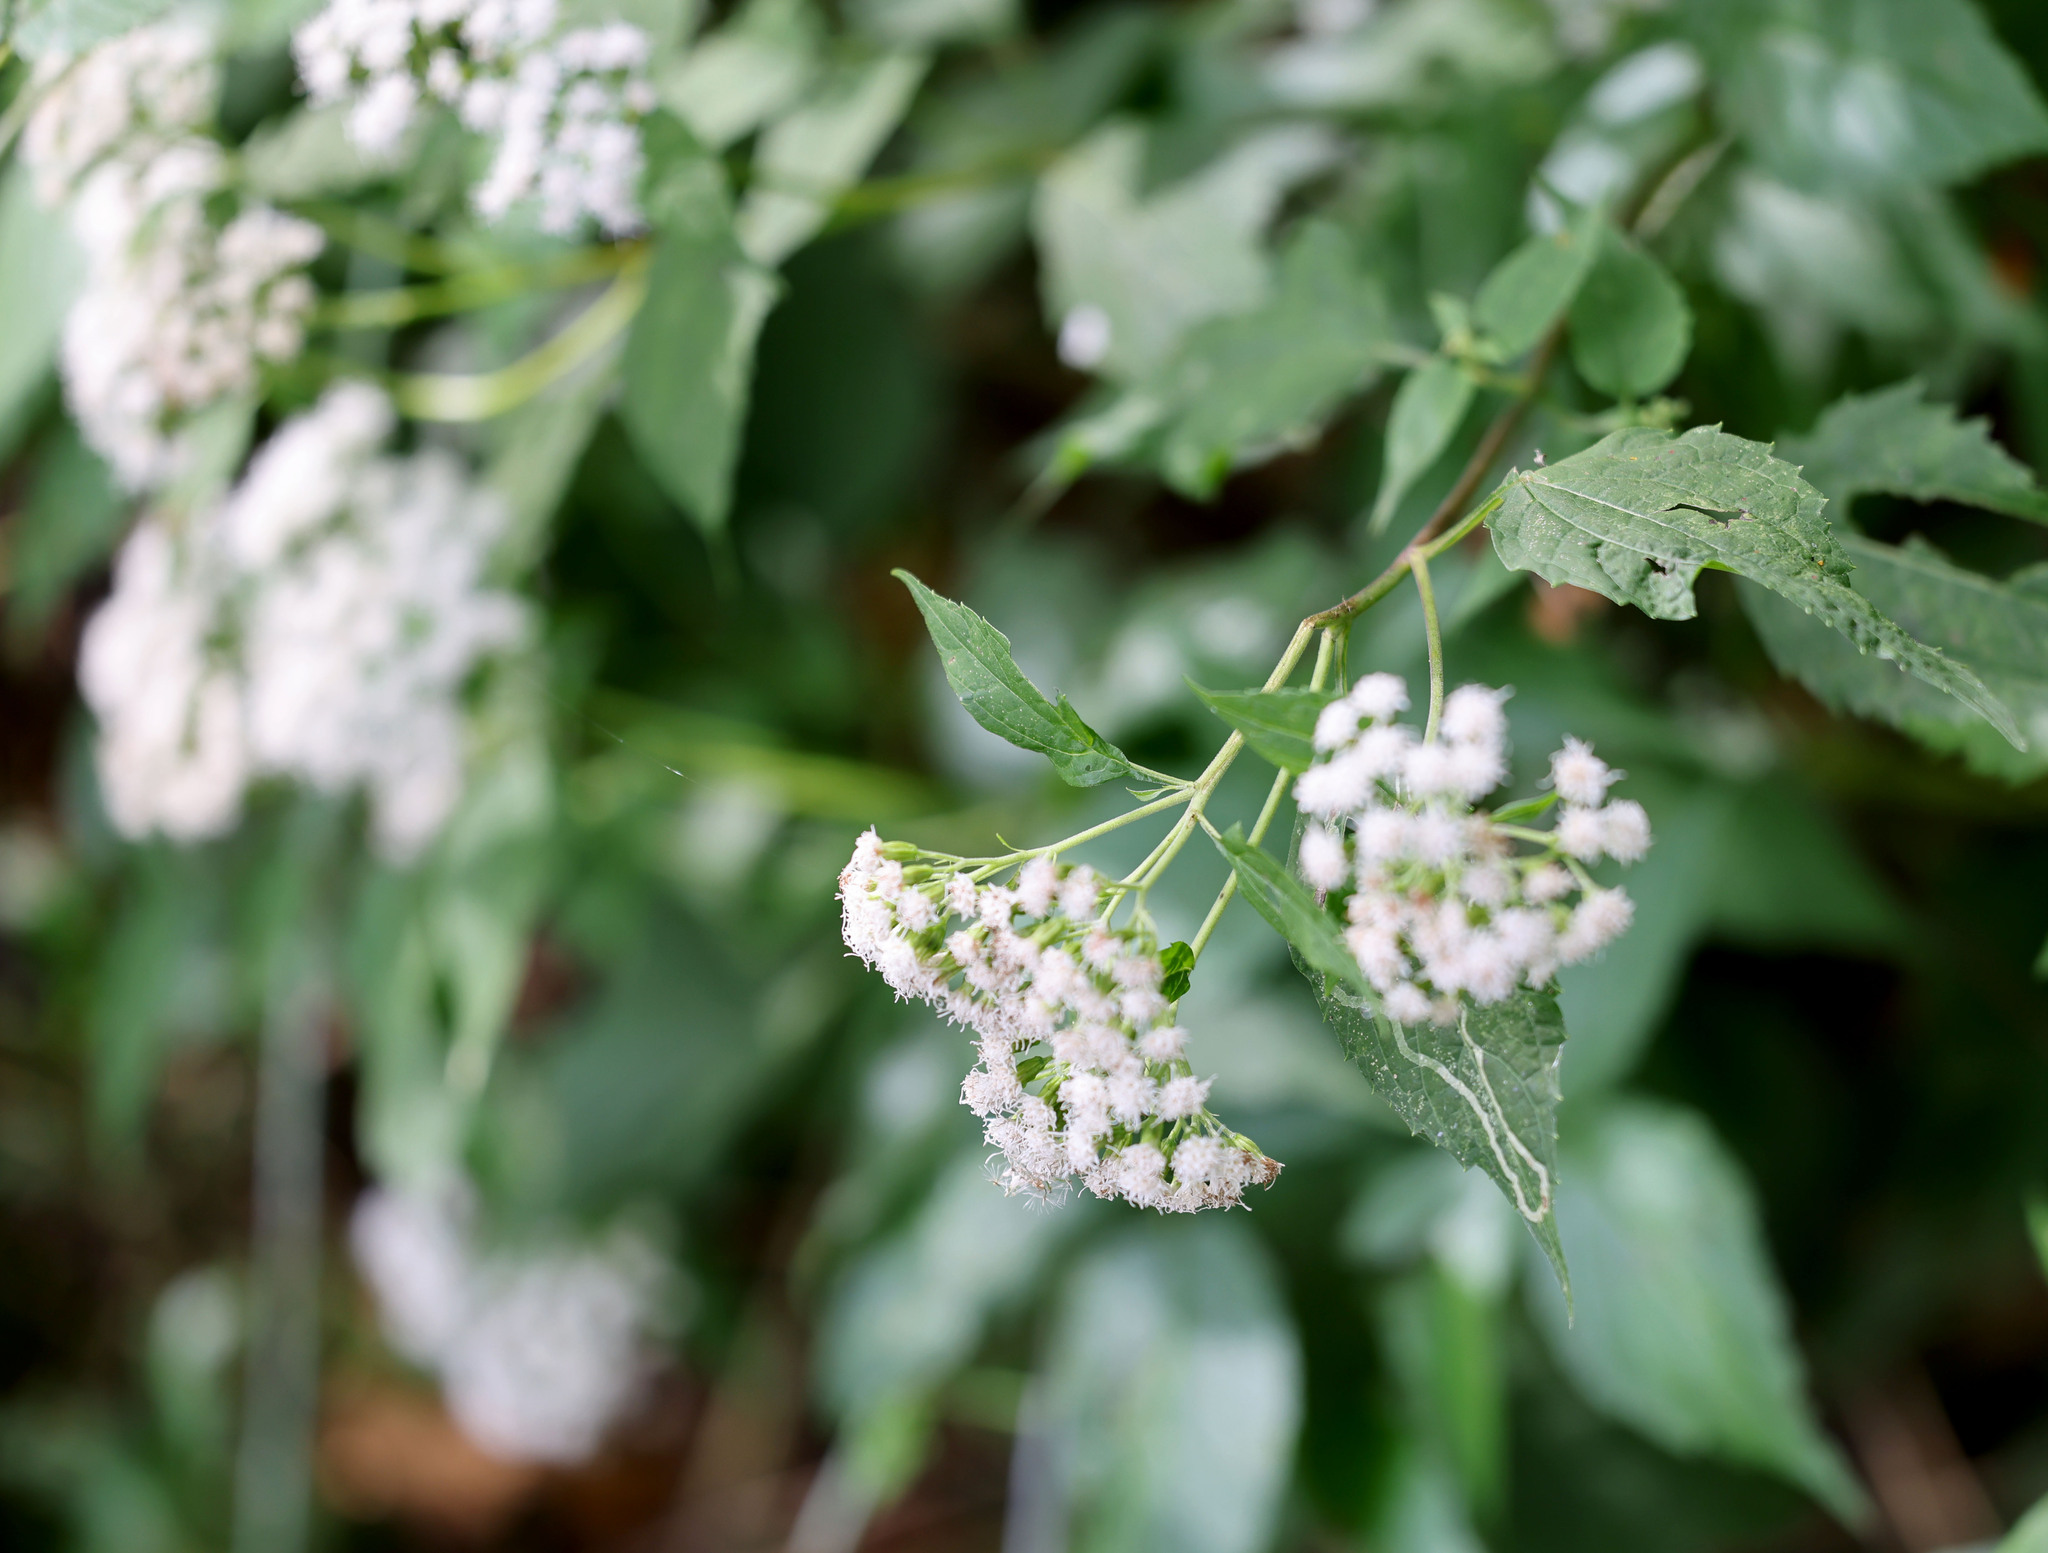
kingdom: Plantae
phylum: Tracheophyta
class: Magnoliopsida
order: Asterales
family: Asteraceae
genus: Ageratina
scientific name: Ageratina altissima
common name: White snakeroot
